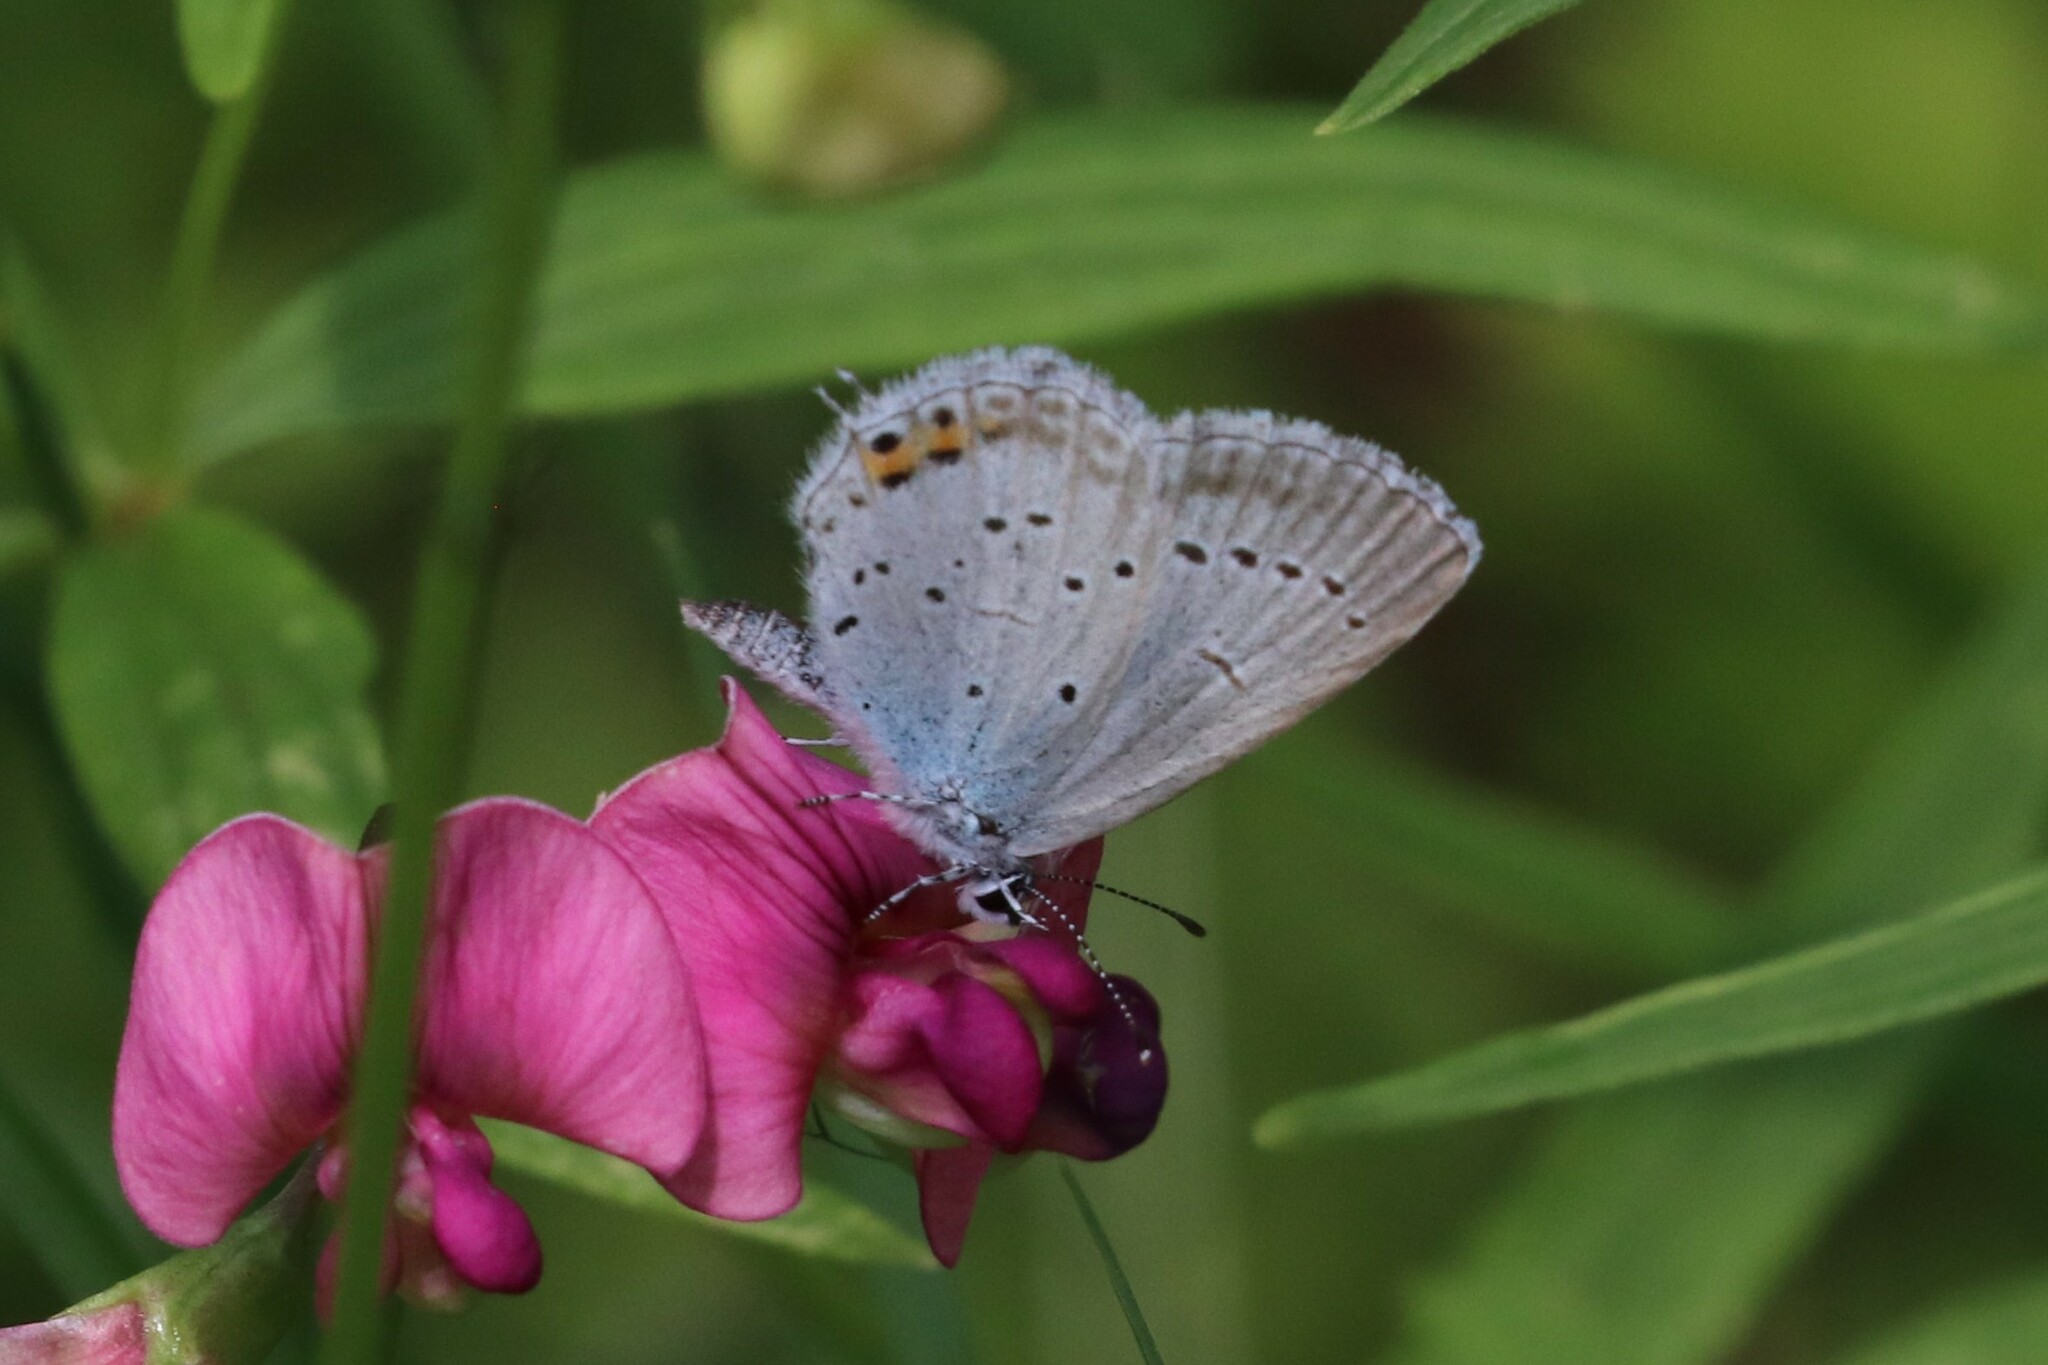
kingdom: Animalia
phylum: Arthropoda
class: Insecta
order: Lepidoptera
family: Lycaenidae
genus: Elkalyce
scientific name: Elkalyce argiades
